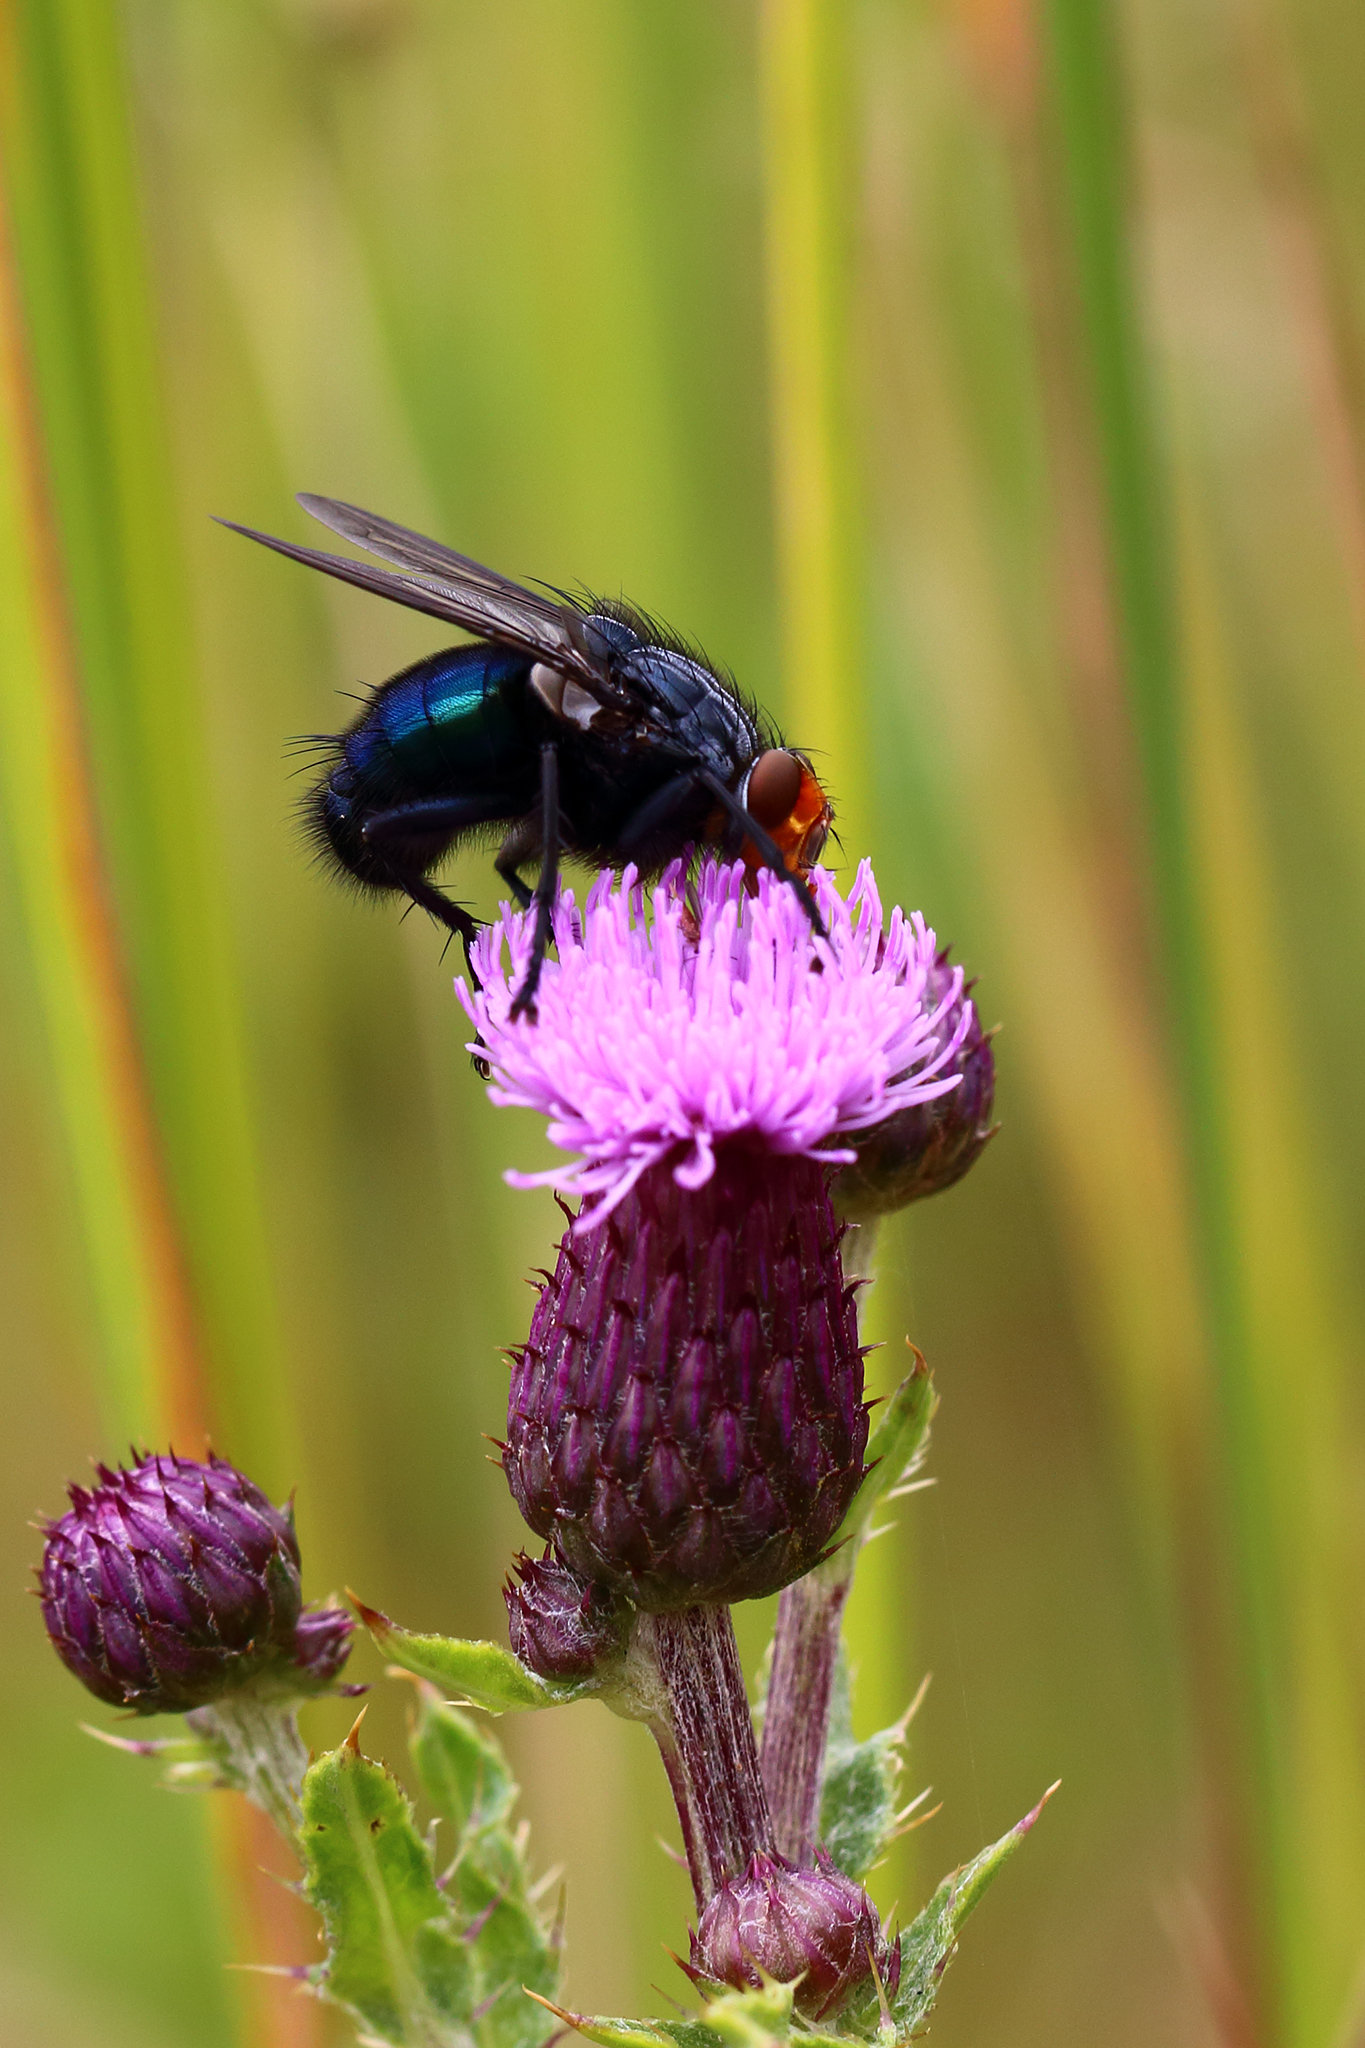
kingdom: Animalia
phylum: Arthropoda
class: Insecta
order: Diptera
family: Calliphoridae
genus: Cynomya
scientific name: Cynomya mortuorum
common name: Bluebottle blow fly
